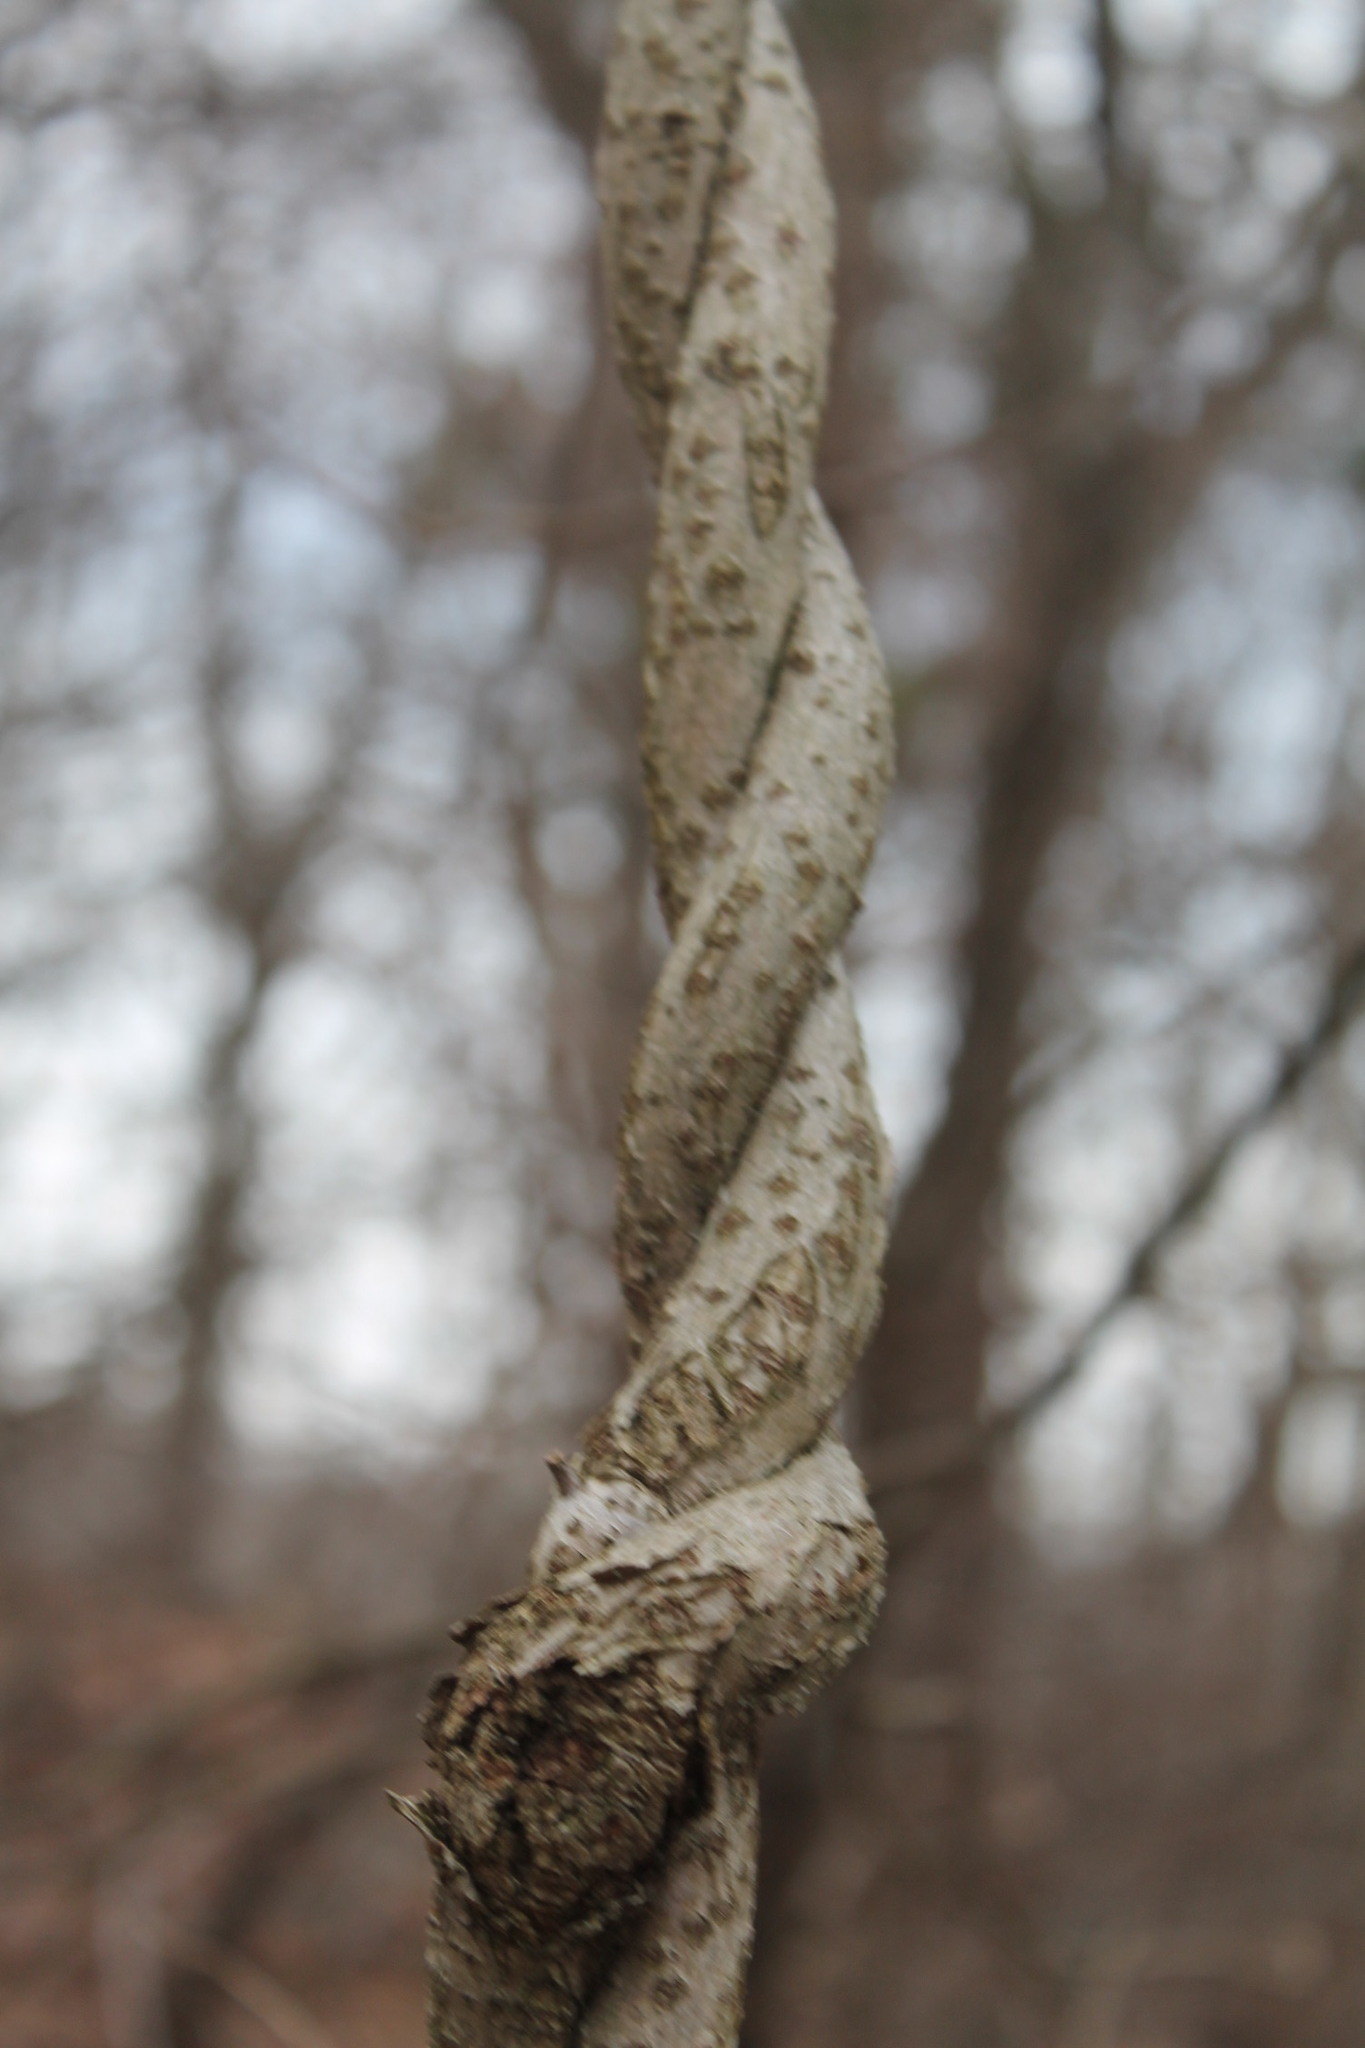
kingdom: Plantae
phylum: Tracheophyta
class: Magnoliopsida
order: Celastrales
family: Celastraceae
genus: Celastrus
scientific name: Celastrus orbiculatus
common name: Oriental bittersweet
